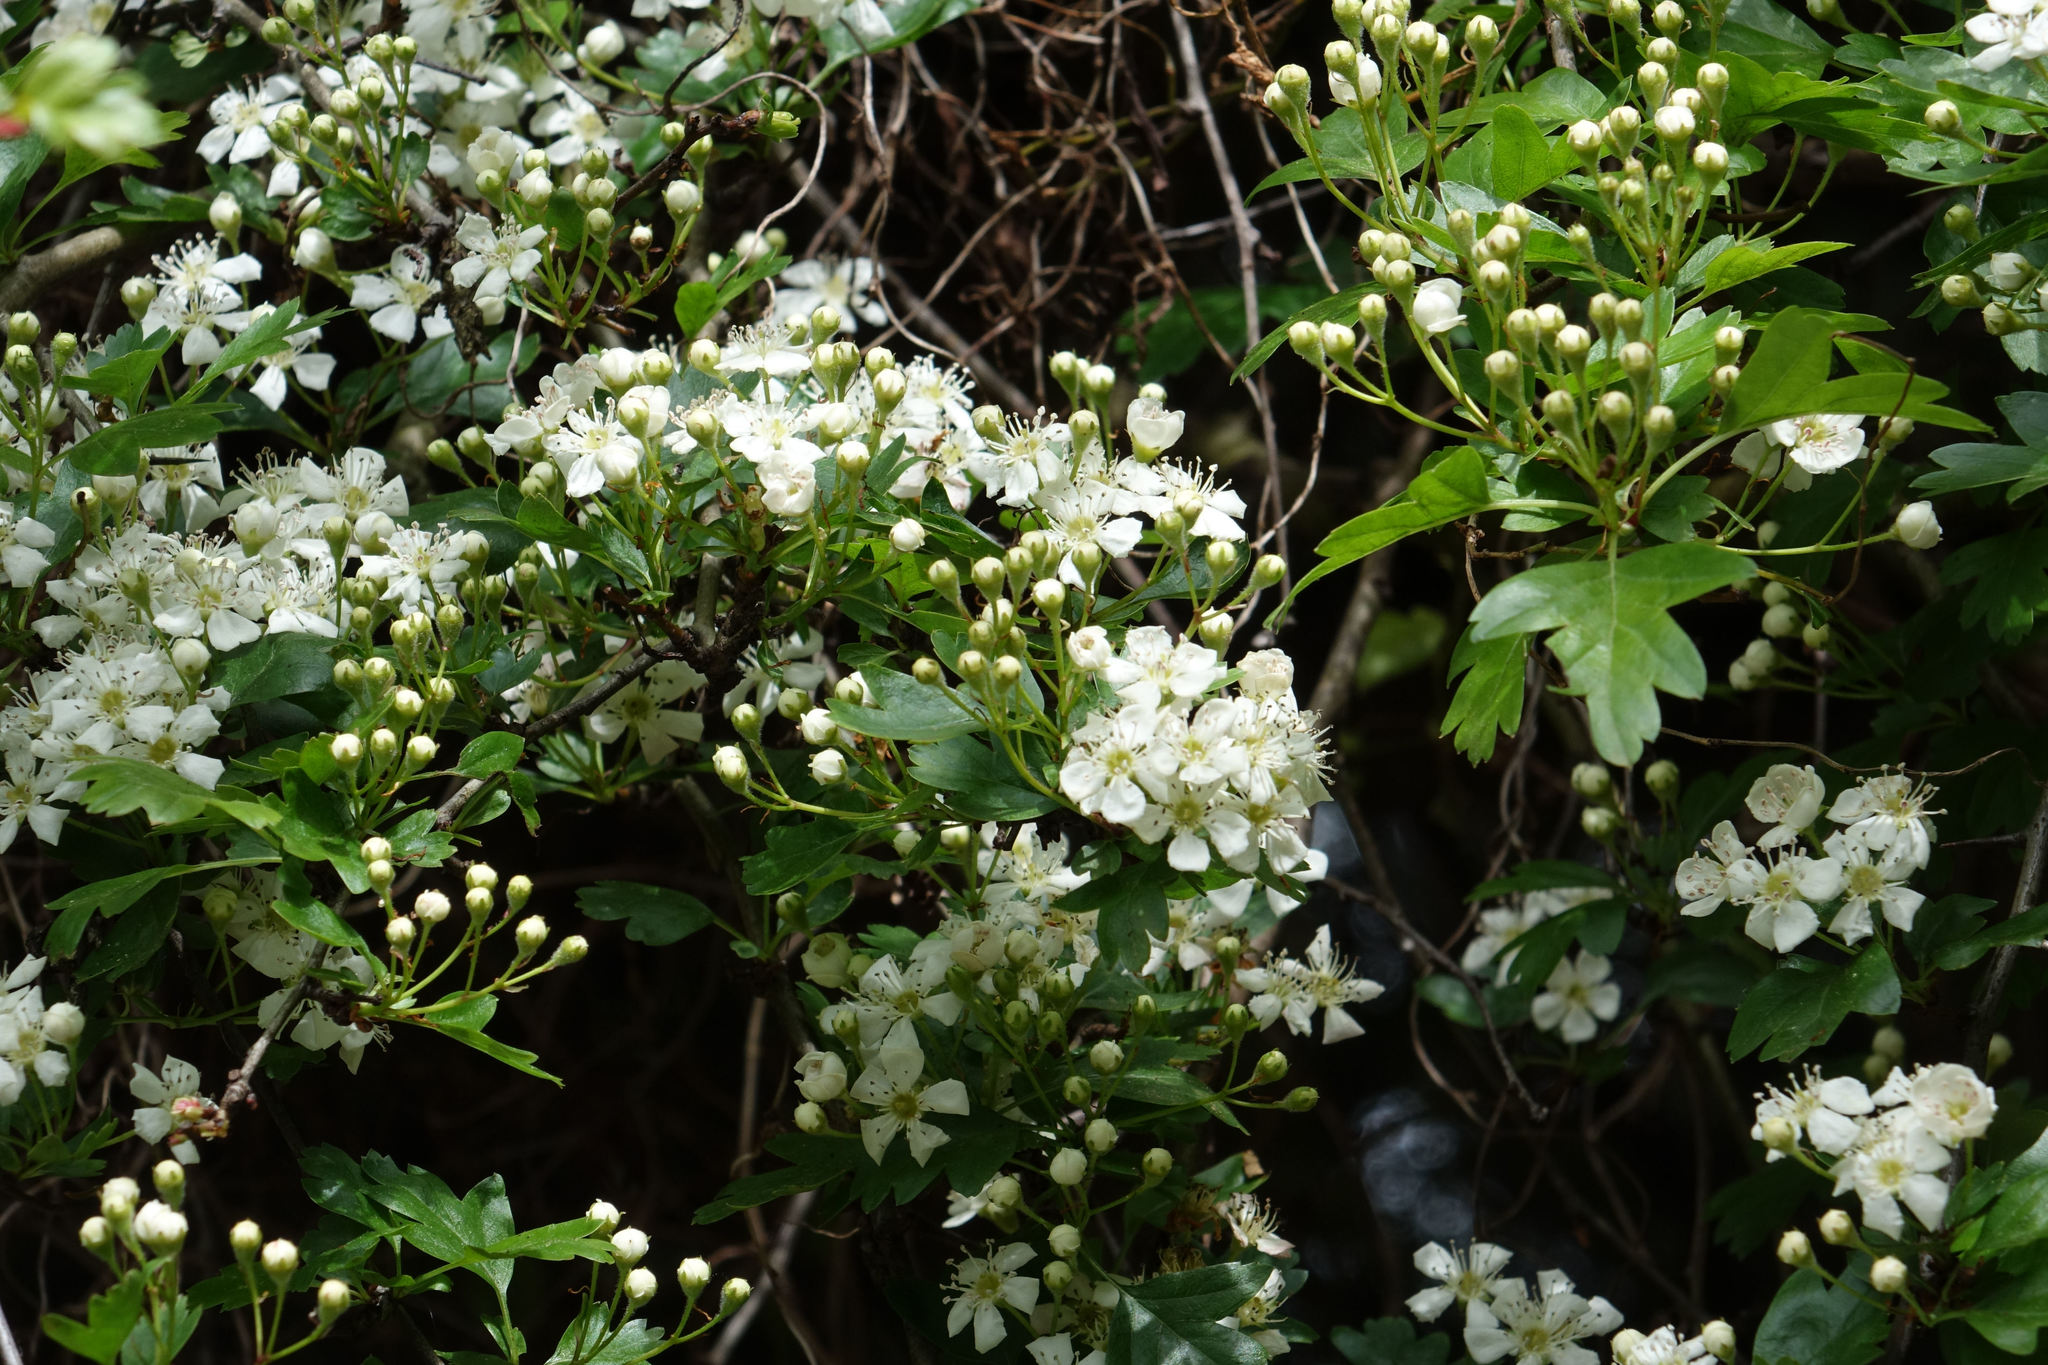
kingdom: Plantae
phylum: Tracheophyta
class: Magnoliopsida
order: Rosales
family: Rosaceae
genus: Crataegus
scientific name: Crataegus monogyna
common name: Hawthorn
